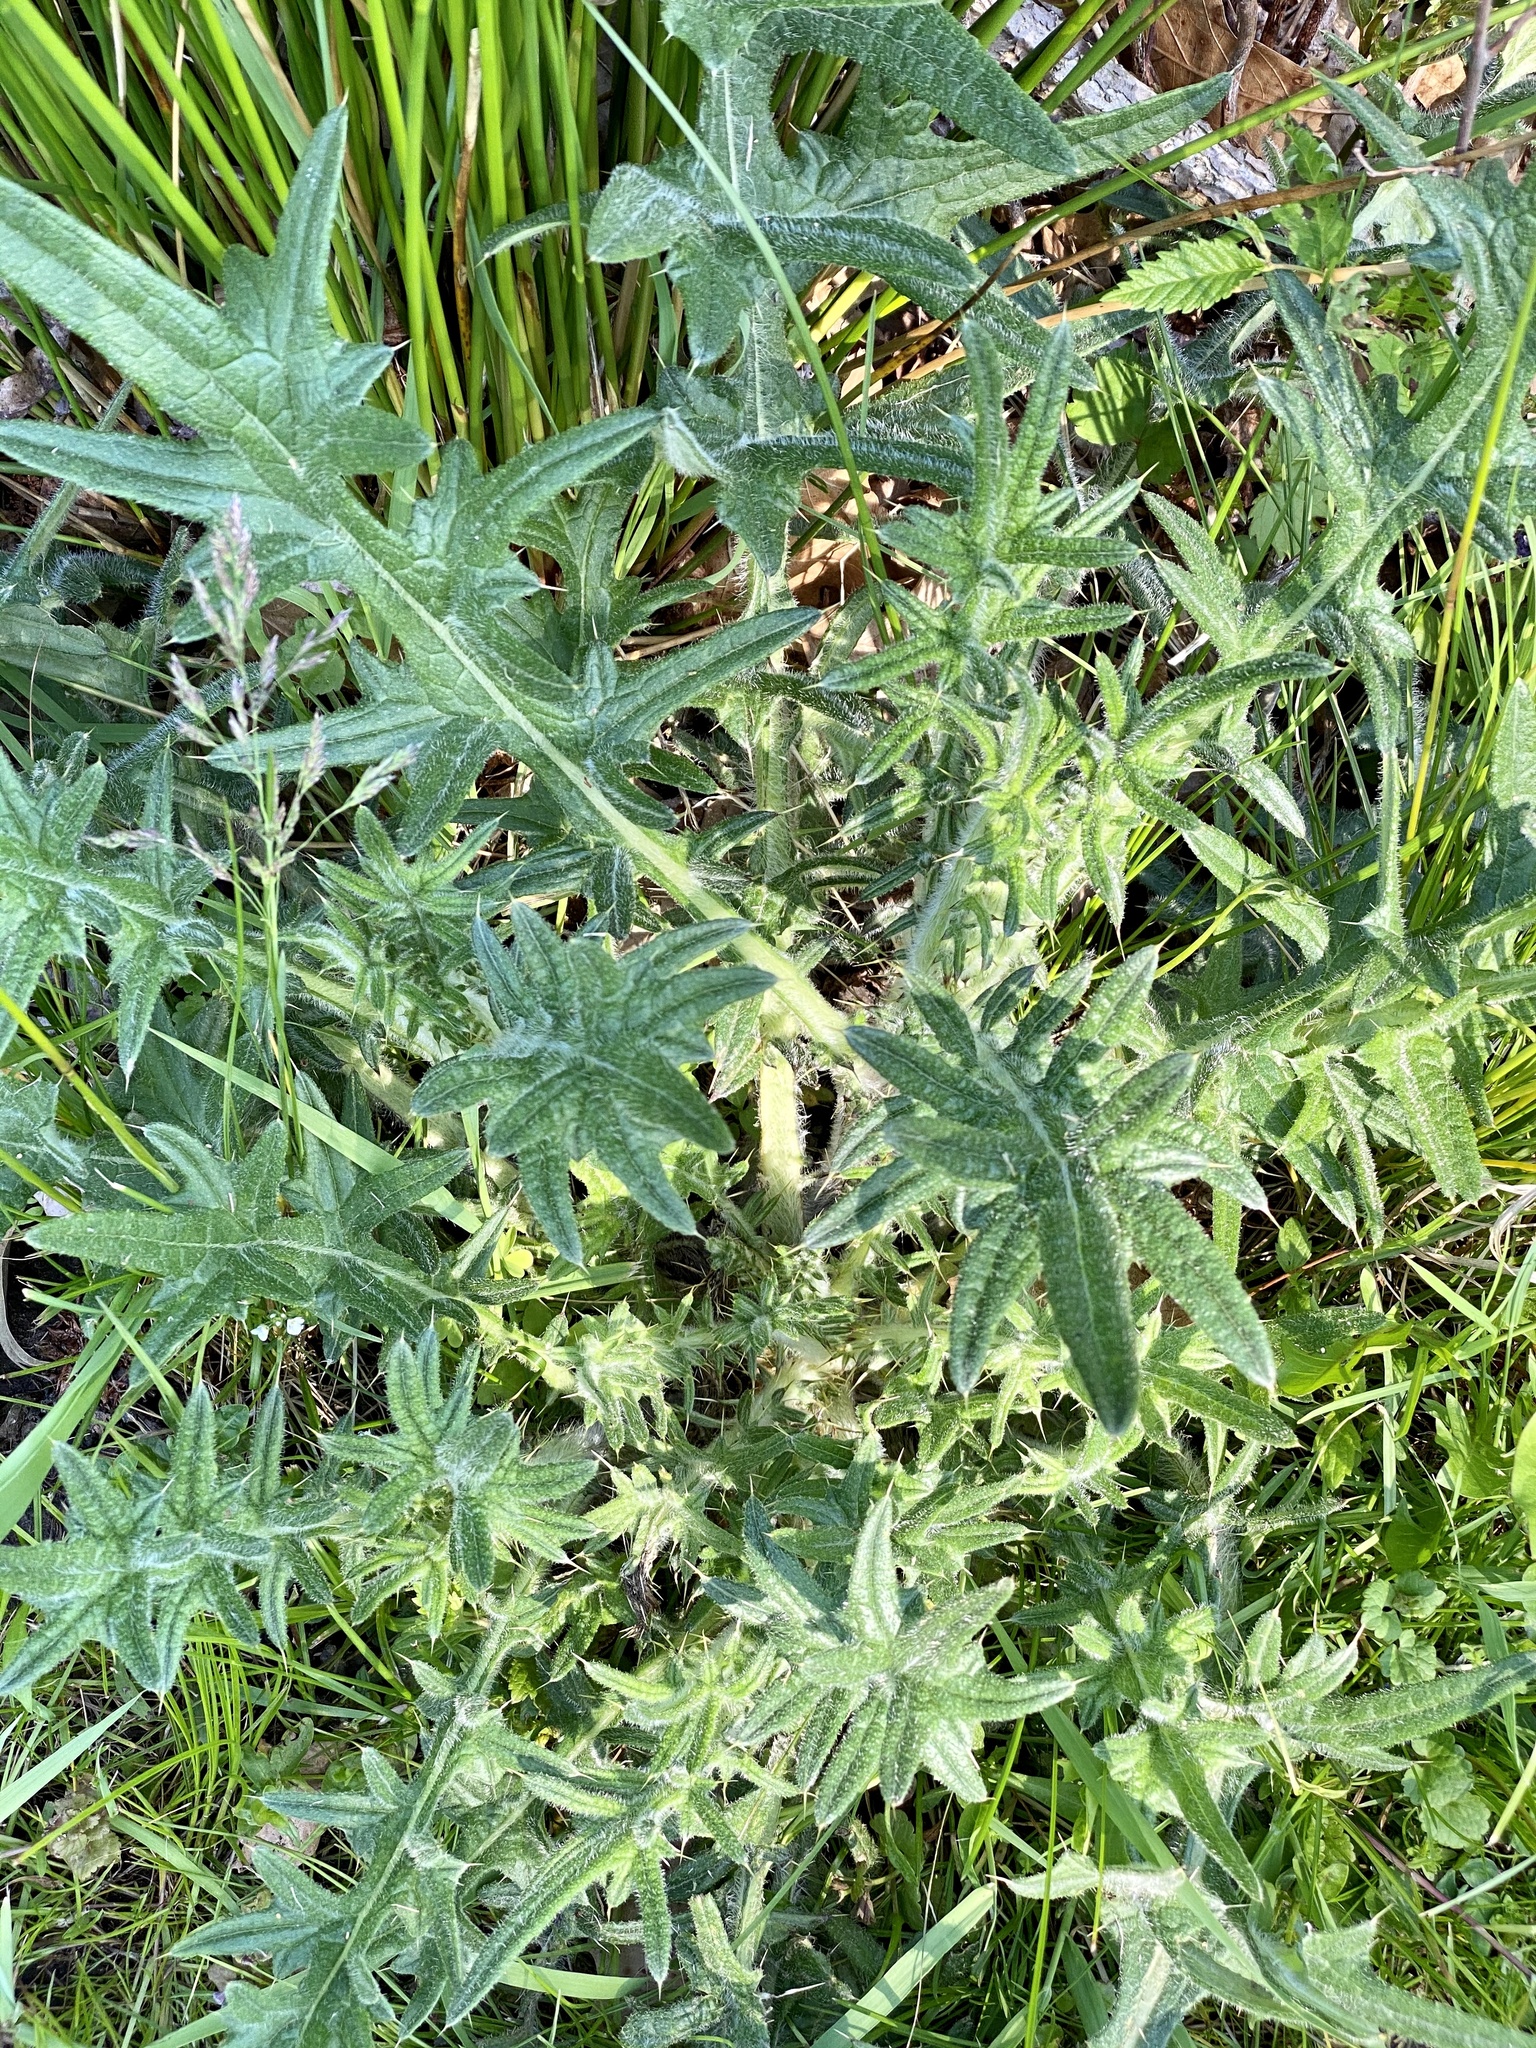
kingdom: Plantae
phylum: Tracheophyta
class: Magnoliopsida
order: Asterales
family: Asteraceae
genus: Cirsium
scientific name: Cirsium vulgare
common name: Bull thistle
